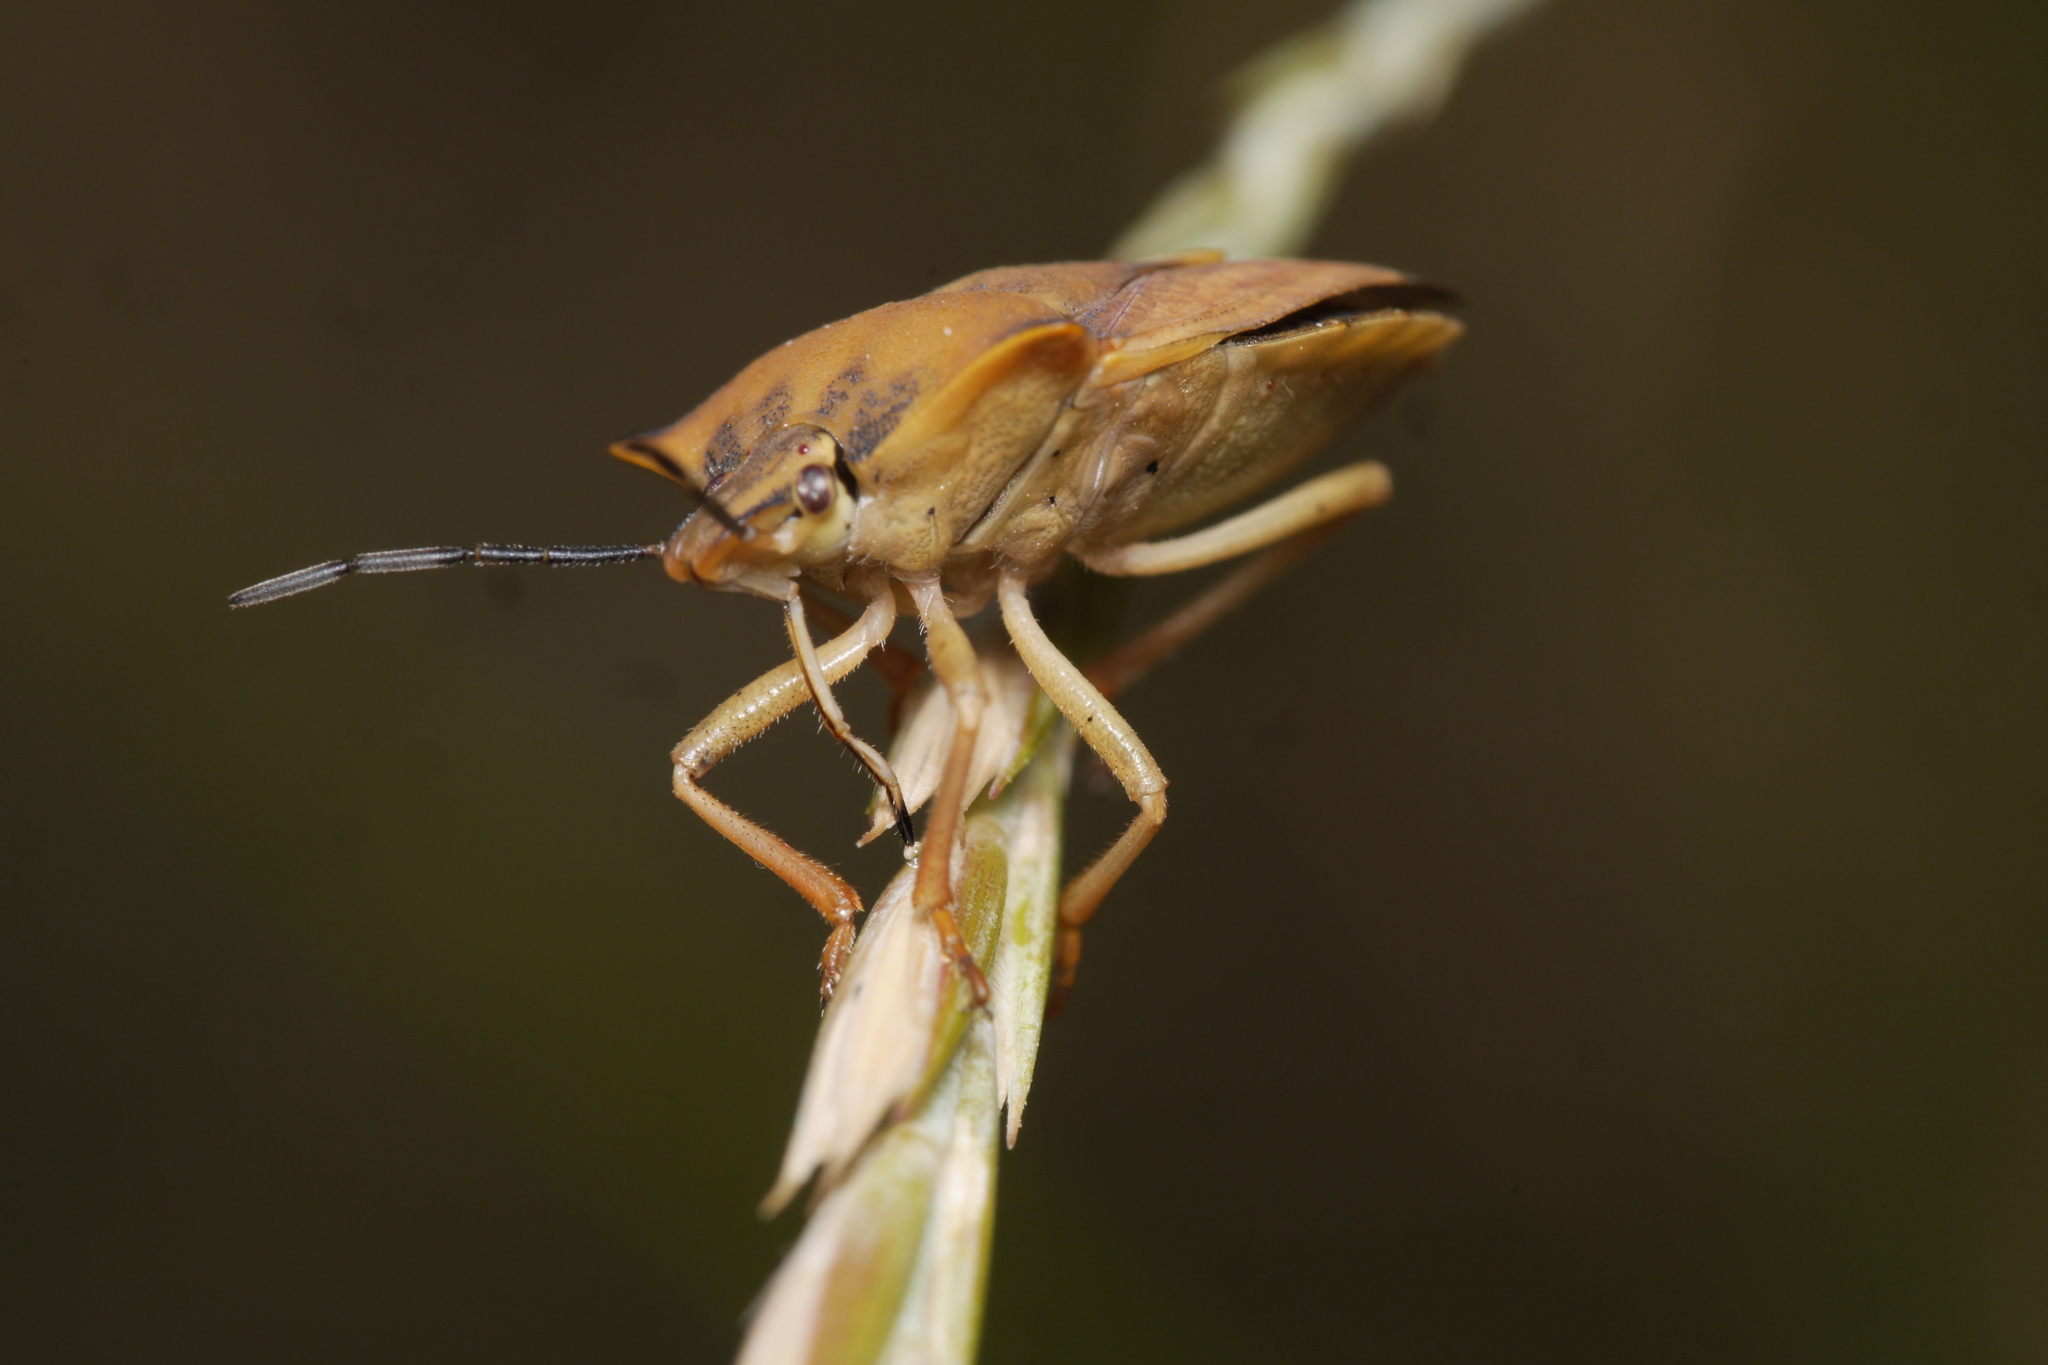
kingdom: Animalia
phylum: Arthropoda
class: Insecta
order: Hemiptera
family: Pentatomidae
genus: Carpocoris
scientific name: Carpocoris fuscispinus
